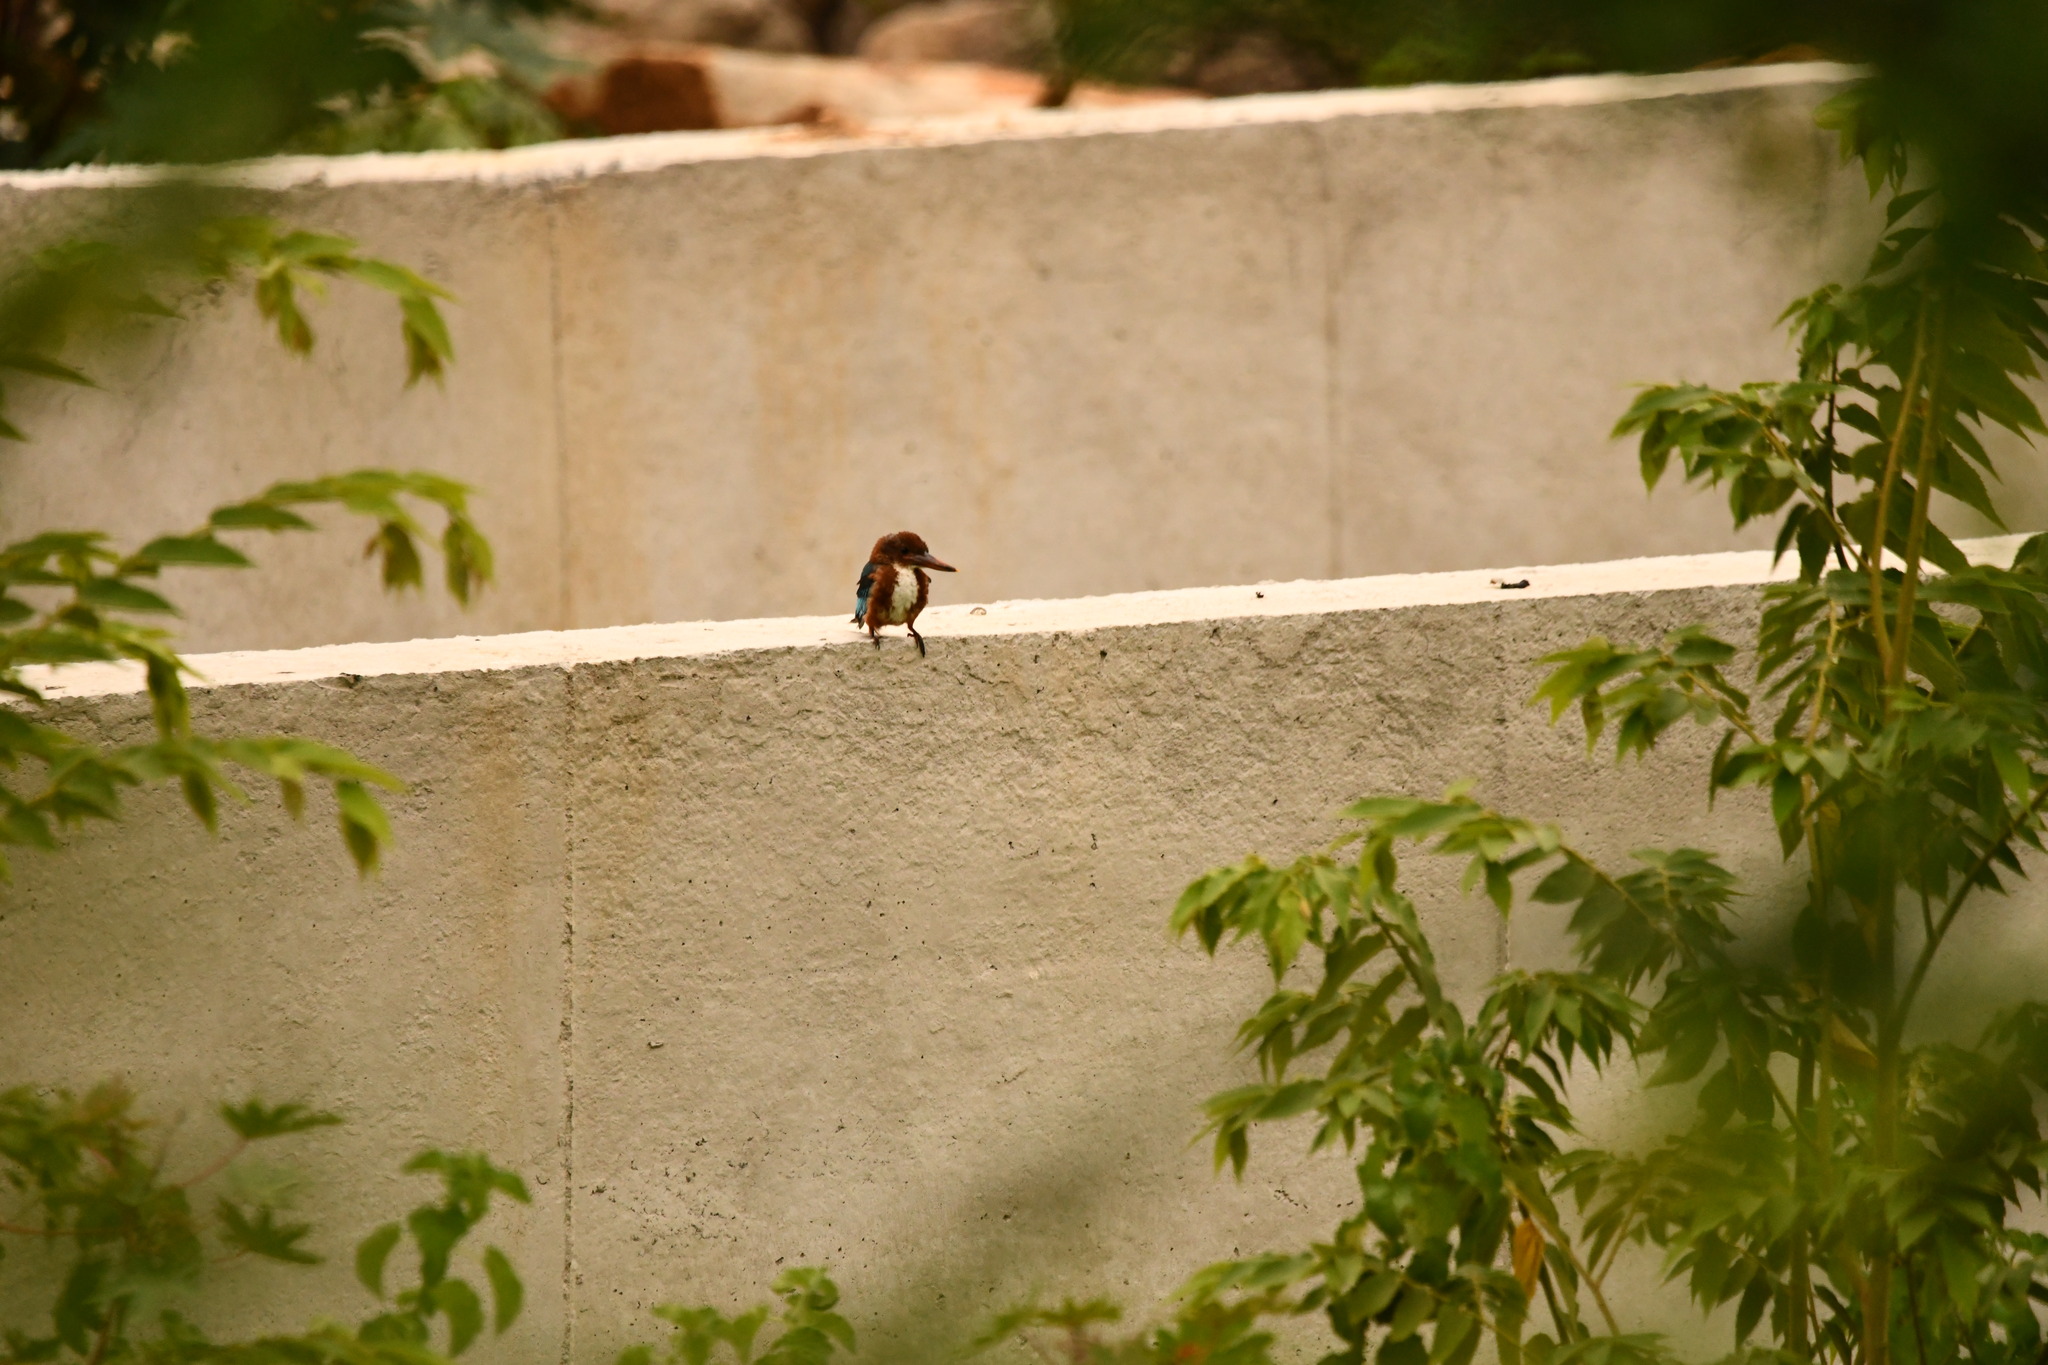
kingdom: Animalia
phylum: Chordata
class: Aves
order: Coraciiformes
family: Alcedinidae
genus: Halcyon
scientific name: Halcyon smyrnensis
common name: White-throated kingfisher
